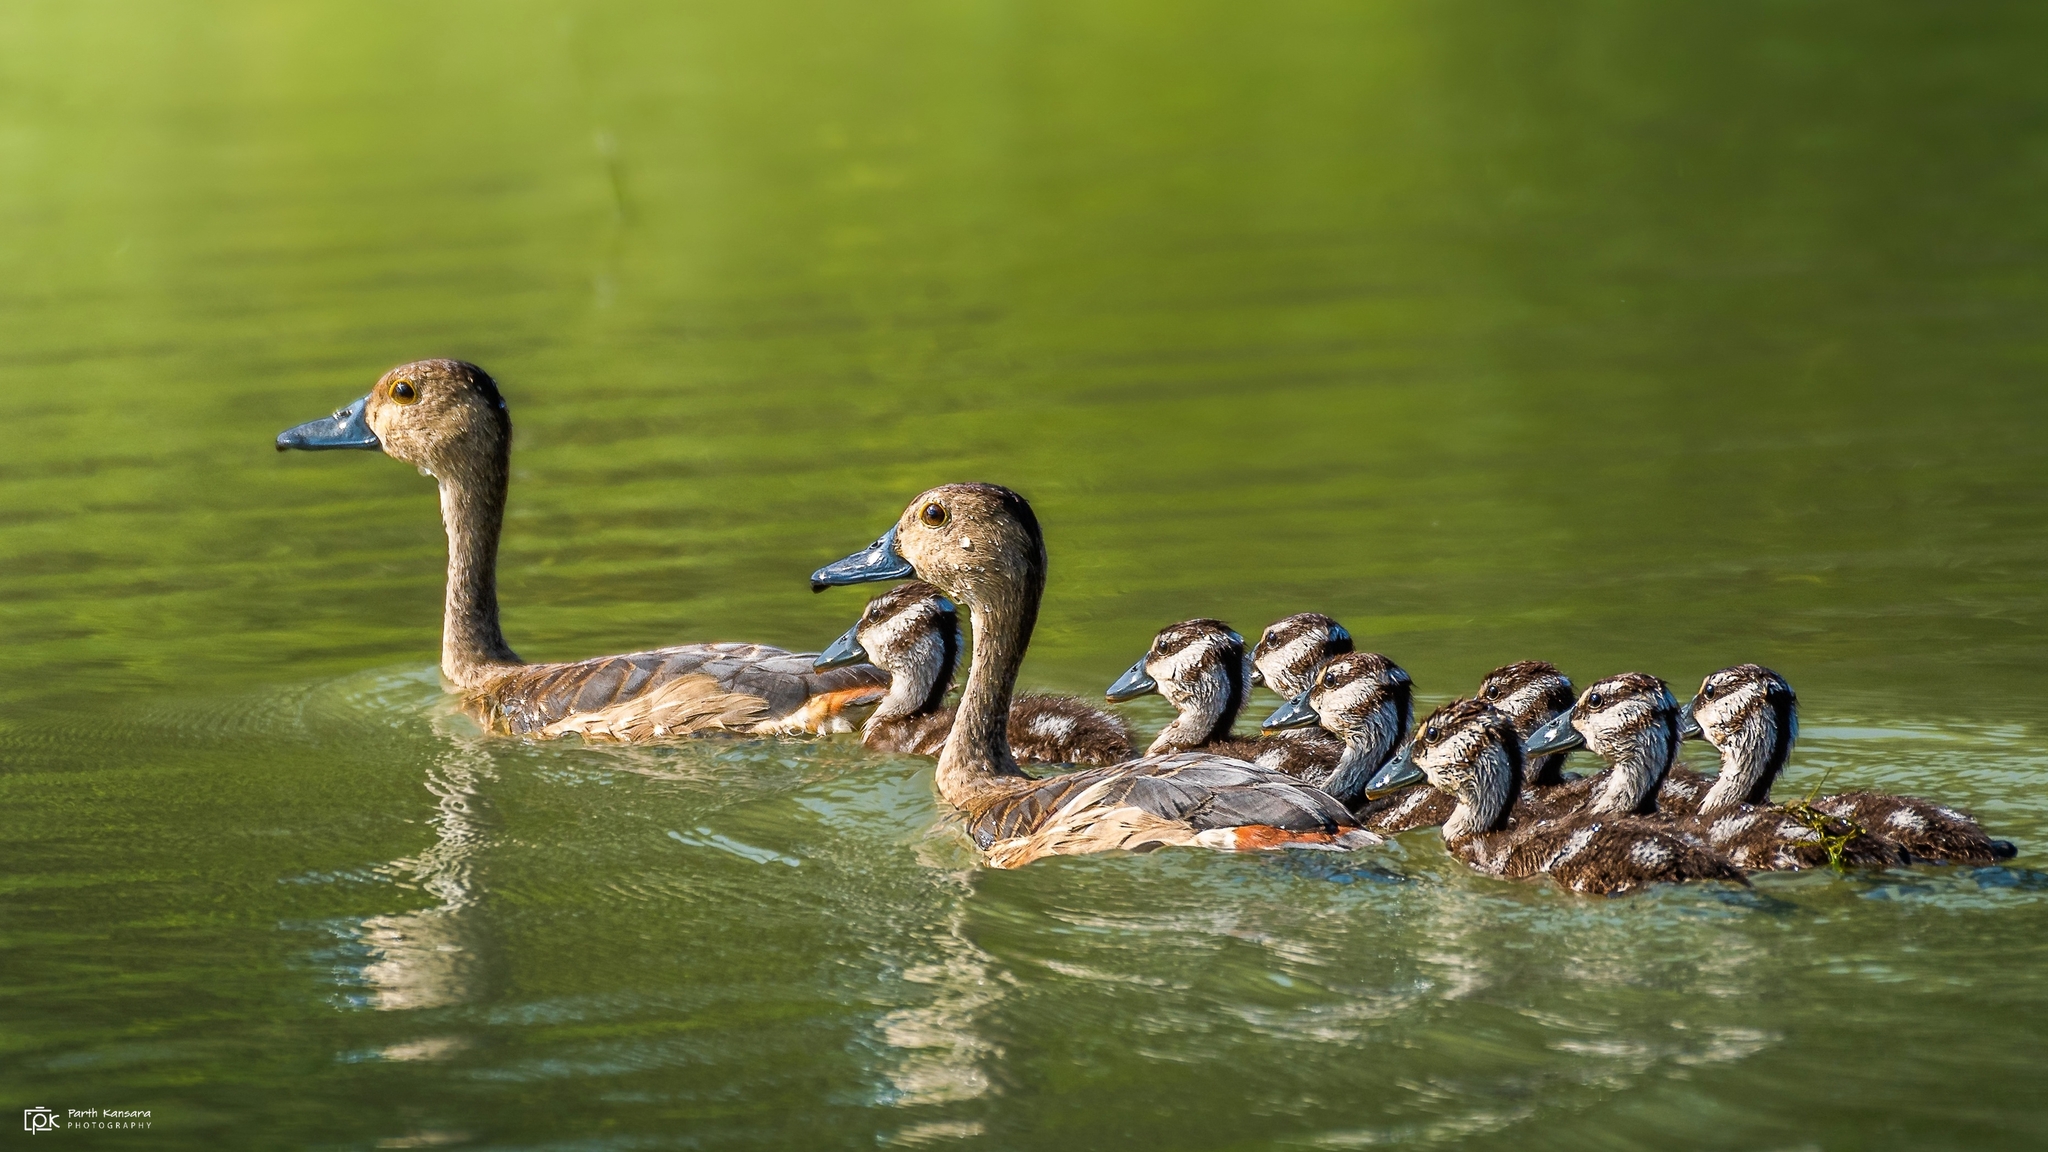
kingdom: Animalia
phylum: Chordata
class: Aves
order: Anseriformes
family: Anatidae
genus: Dendrocygna
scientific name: Dendrocygna javanica
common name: Lesser whistling-duck
